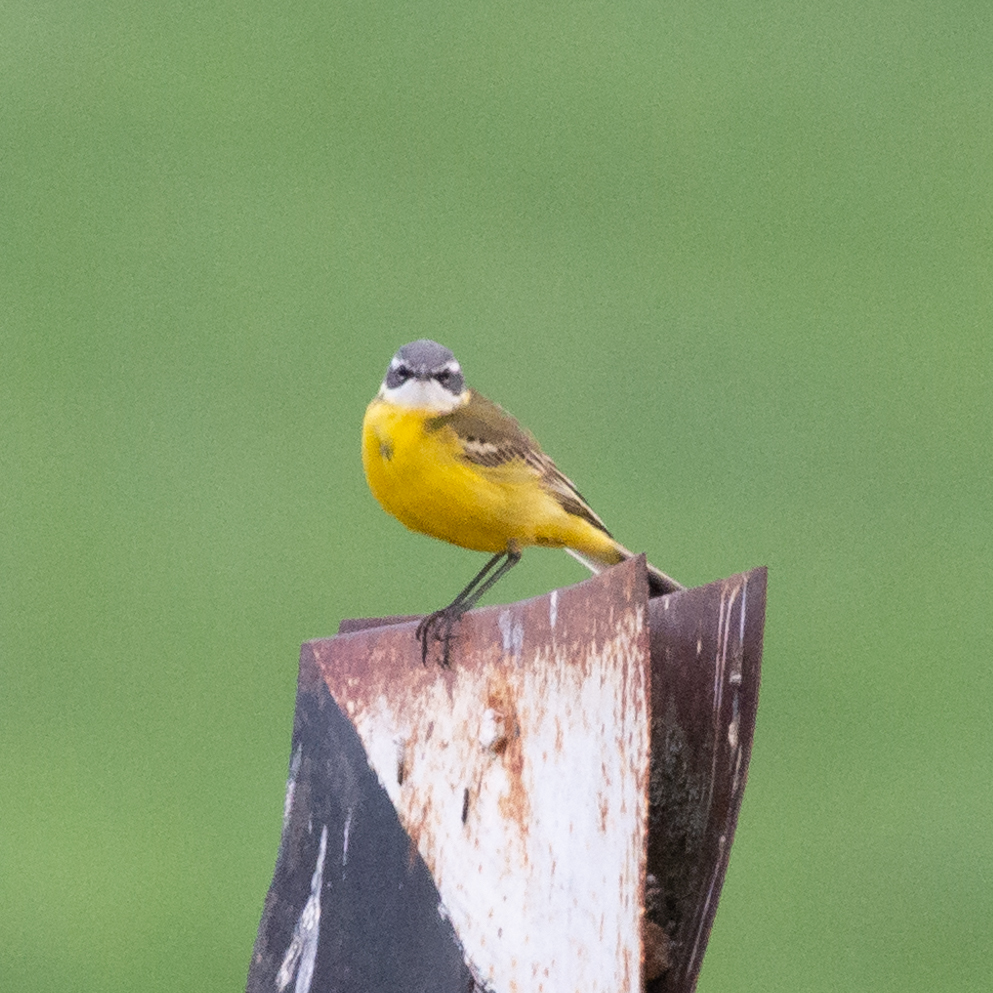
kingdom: Animalia
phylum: Chordata
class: Aves
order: Passeriformes
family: Motacillidae
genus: Motacilla
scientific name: Motacilla flava
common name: Western yellow wagtail
